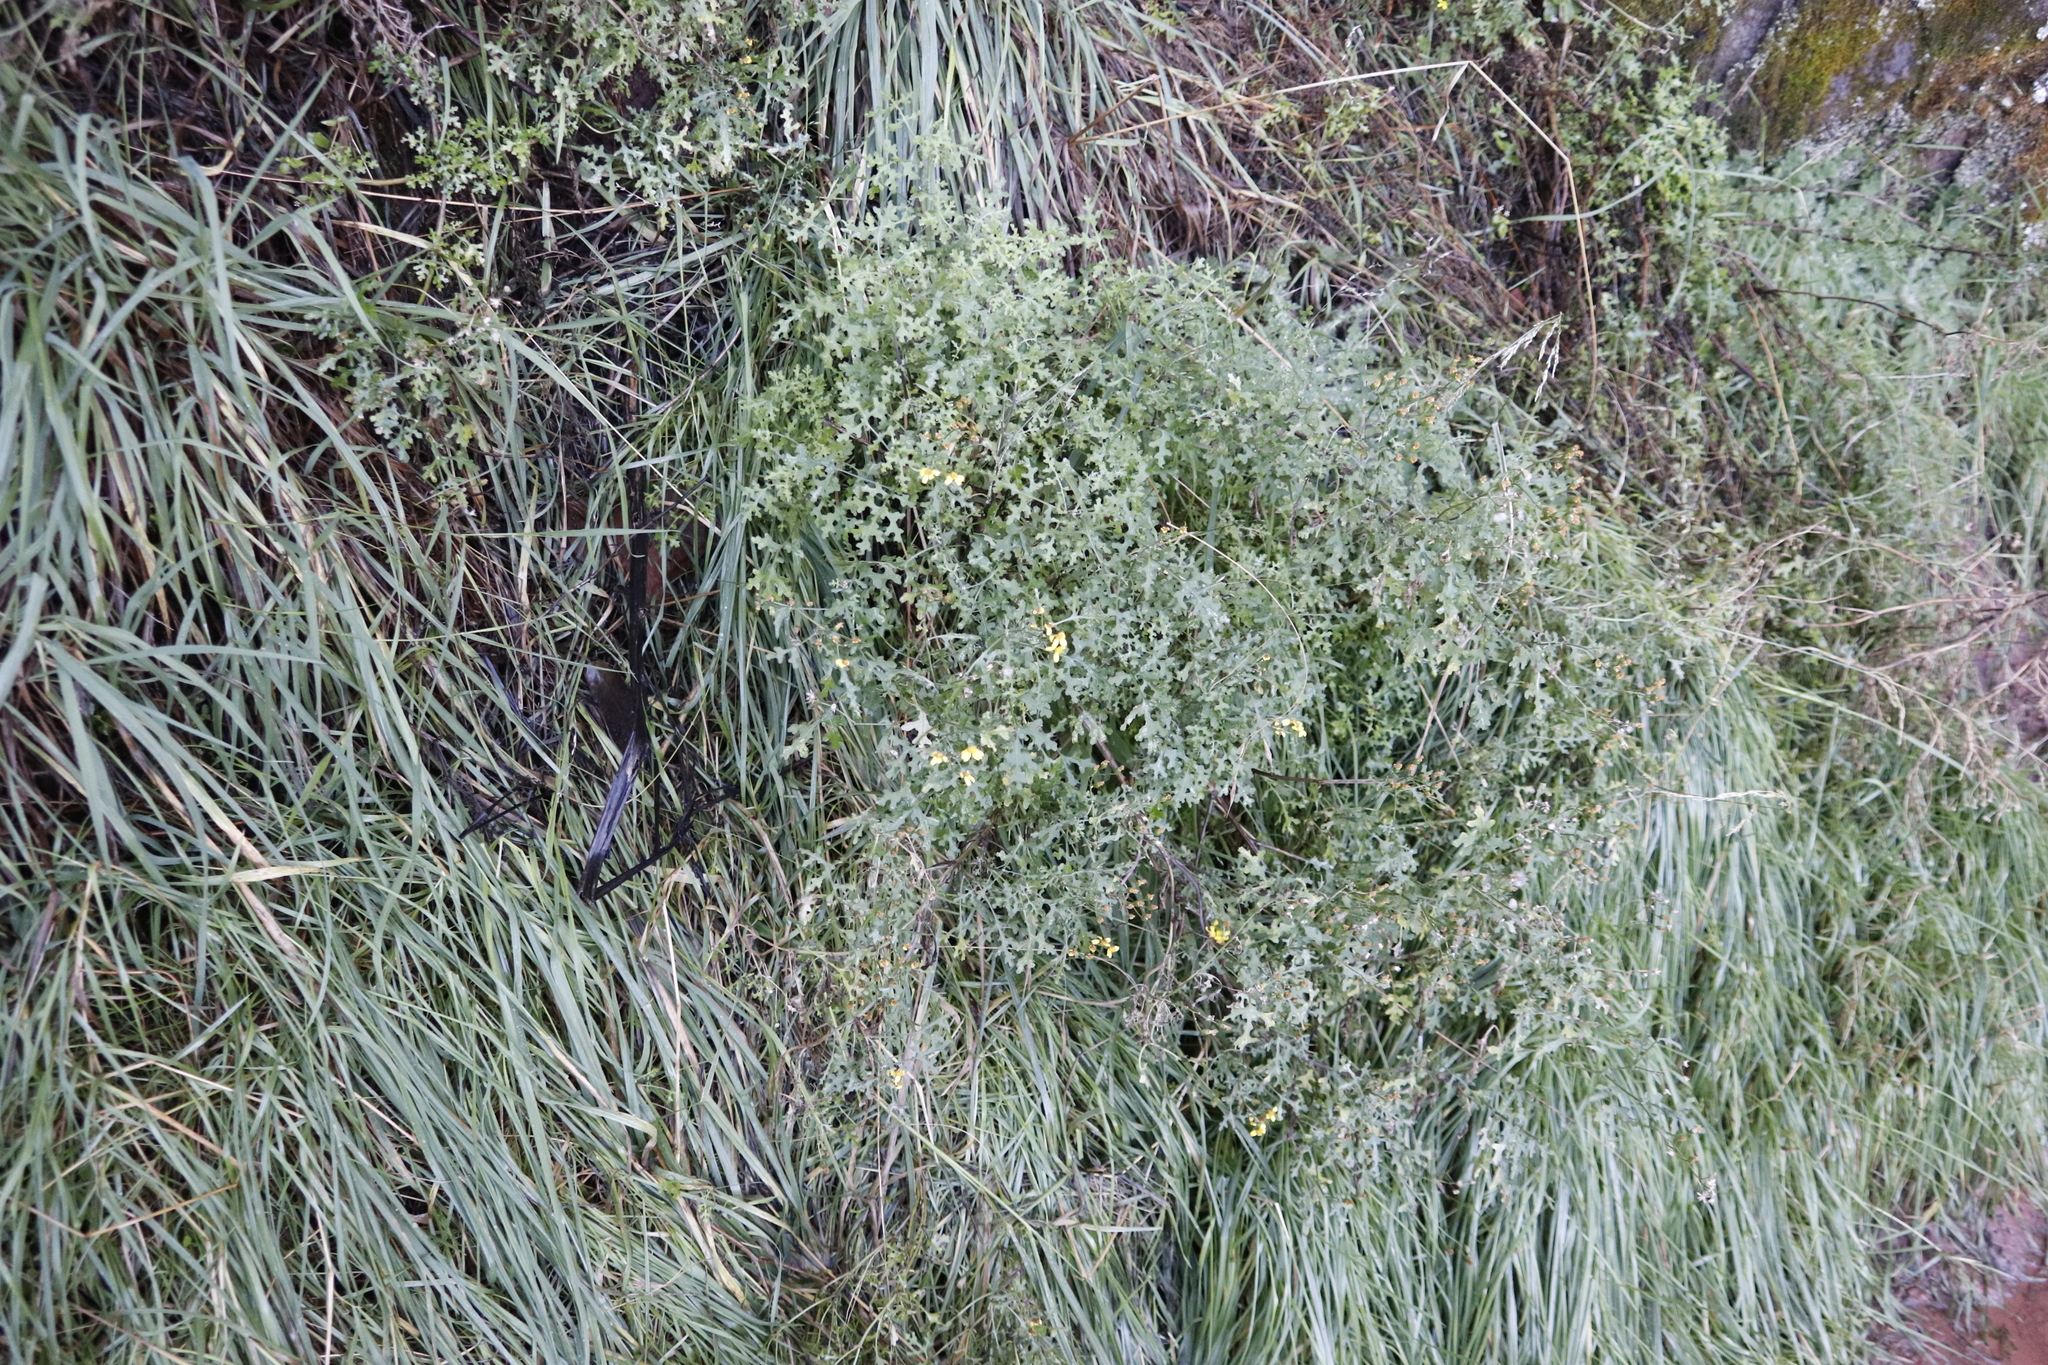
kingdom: Plantae
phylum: Tracheophyta
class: Magnoliopsida
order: Asterales
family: Asteraceae
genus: Cineraria
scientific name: Cineraria lyratiformis
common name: Cineraria
